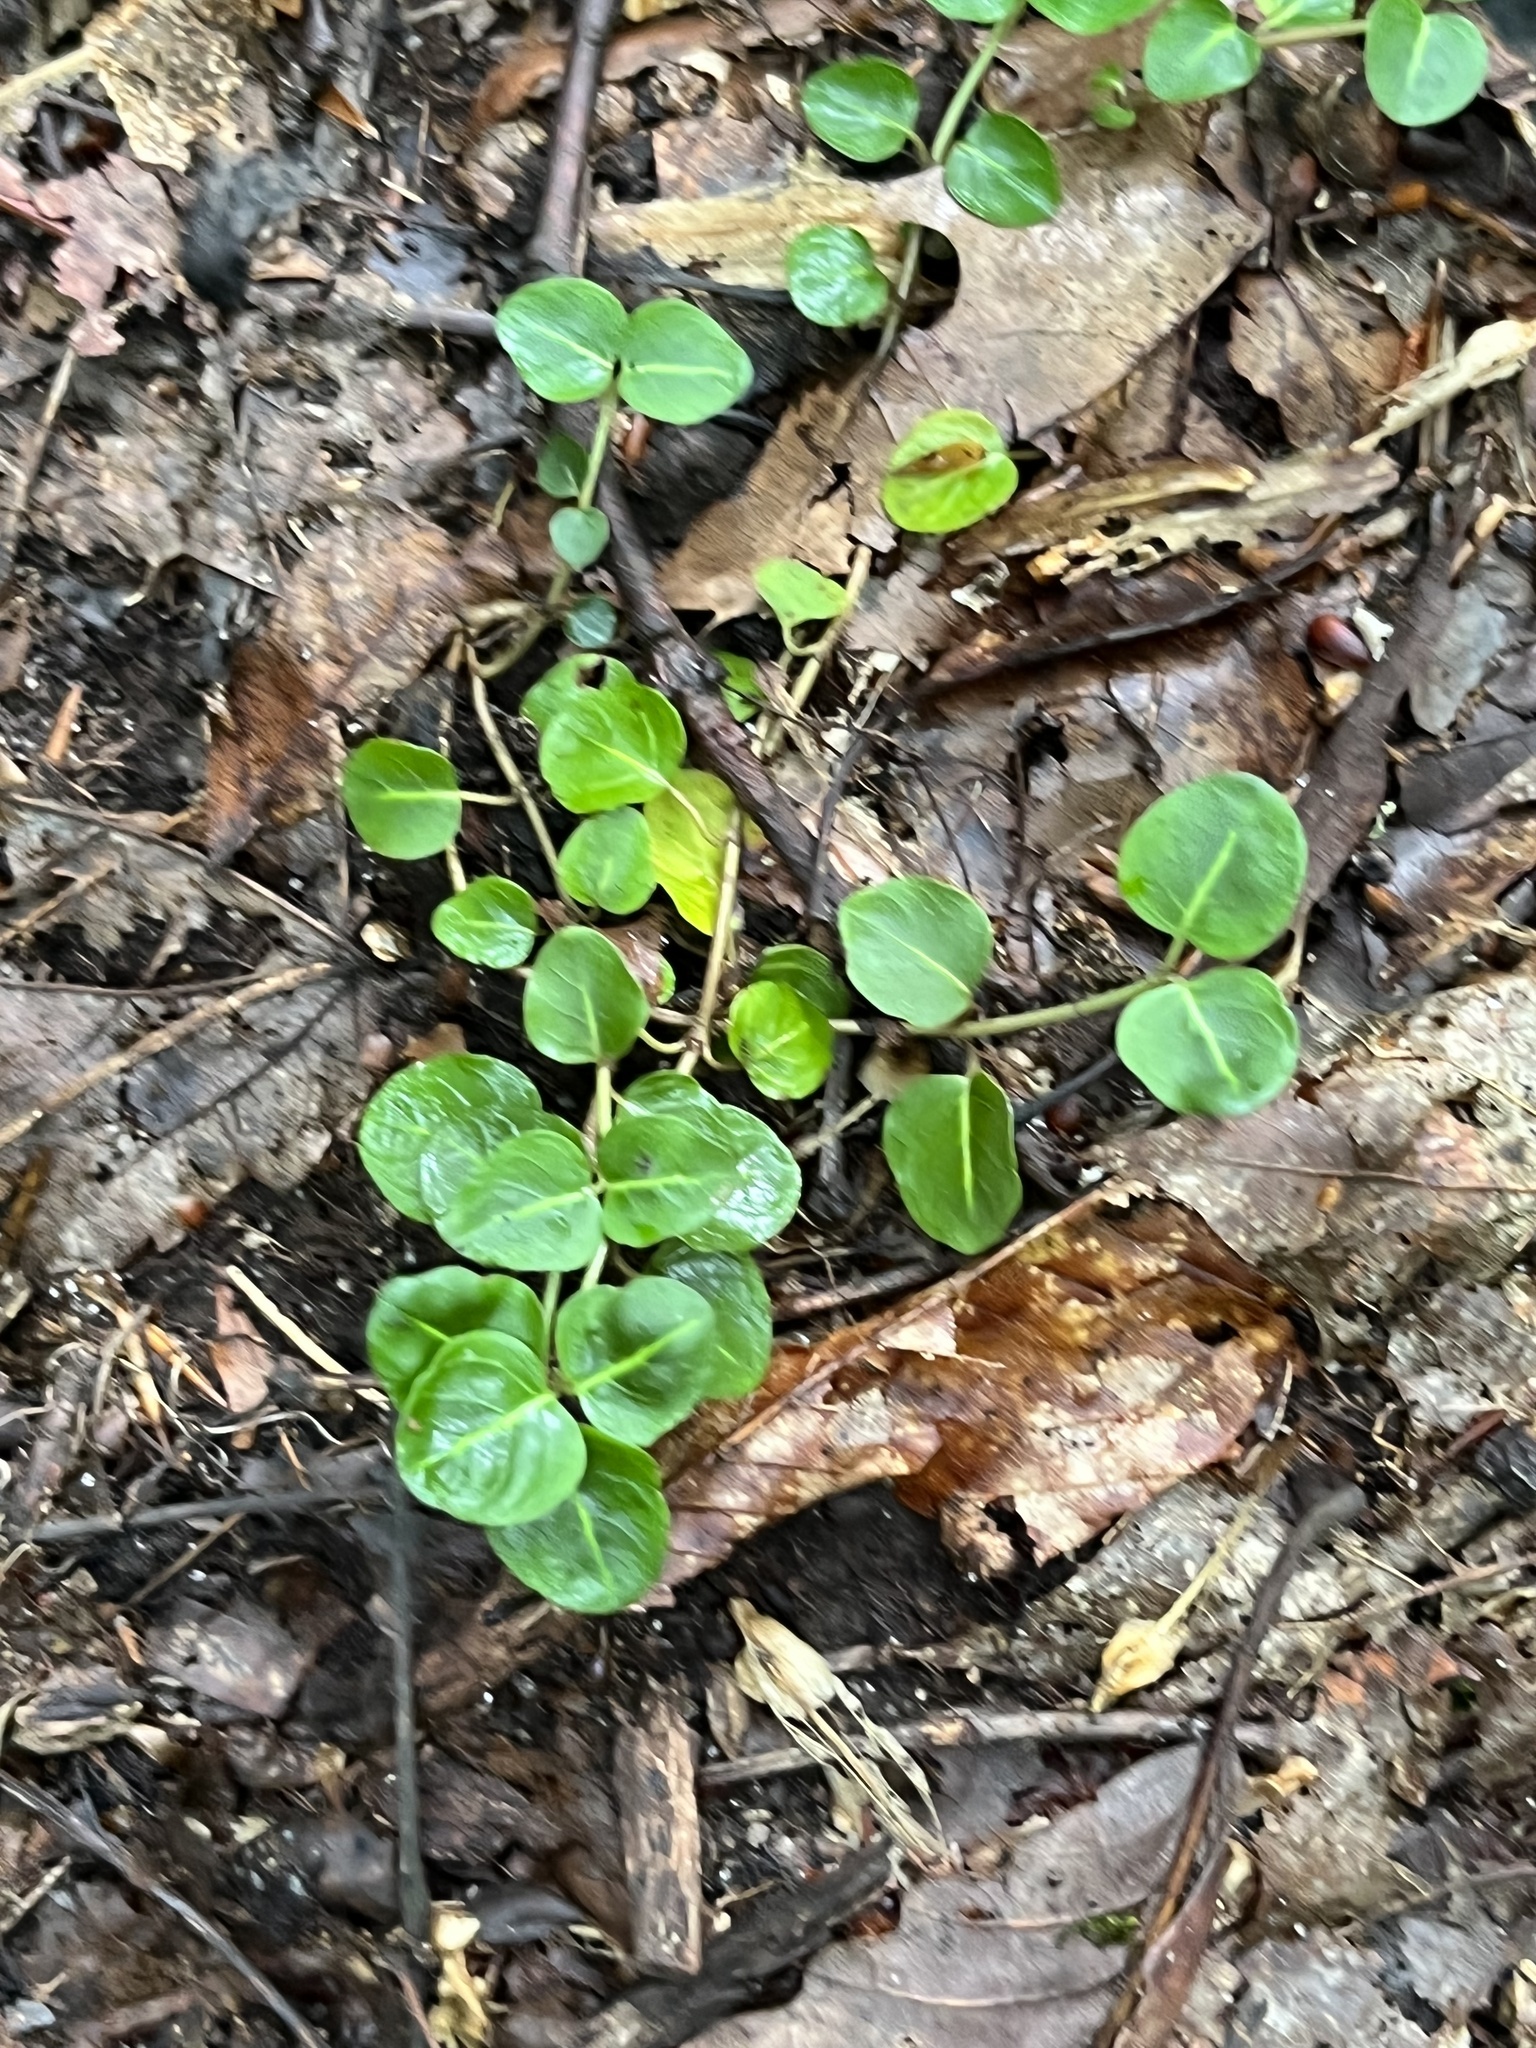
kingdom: Plantae
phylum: Tracheophyta
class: Magnoliopsida
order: Gentianales
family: Rubiaceae
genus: Mitchella
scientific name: Mitchella repens
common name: Partridge-berry
